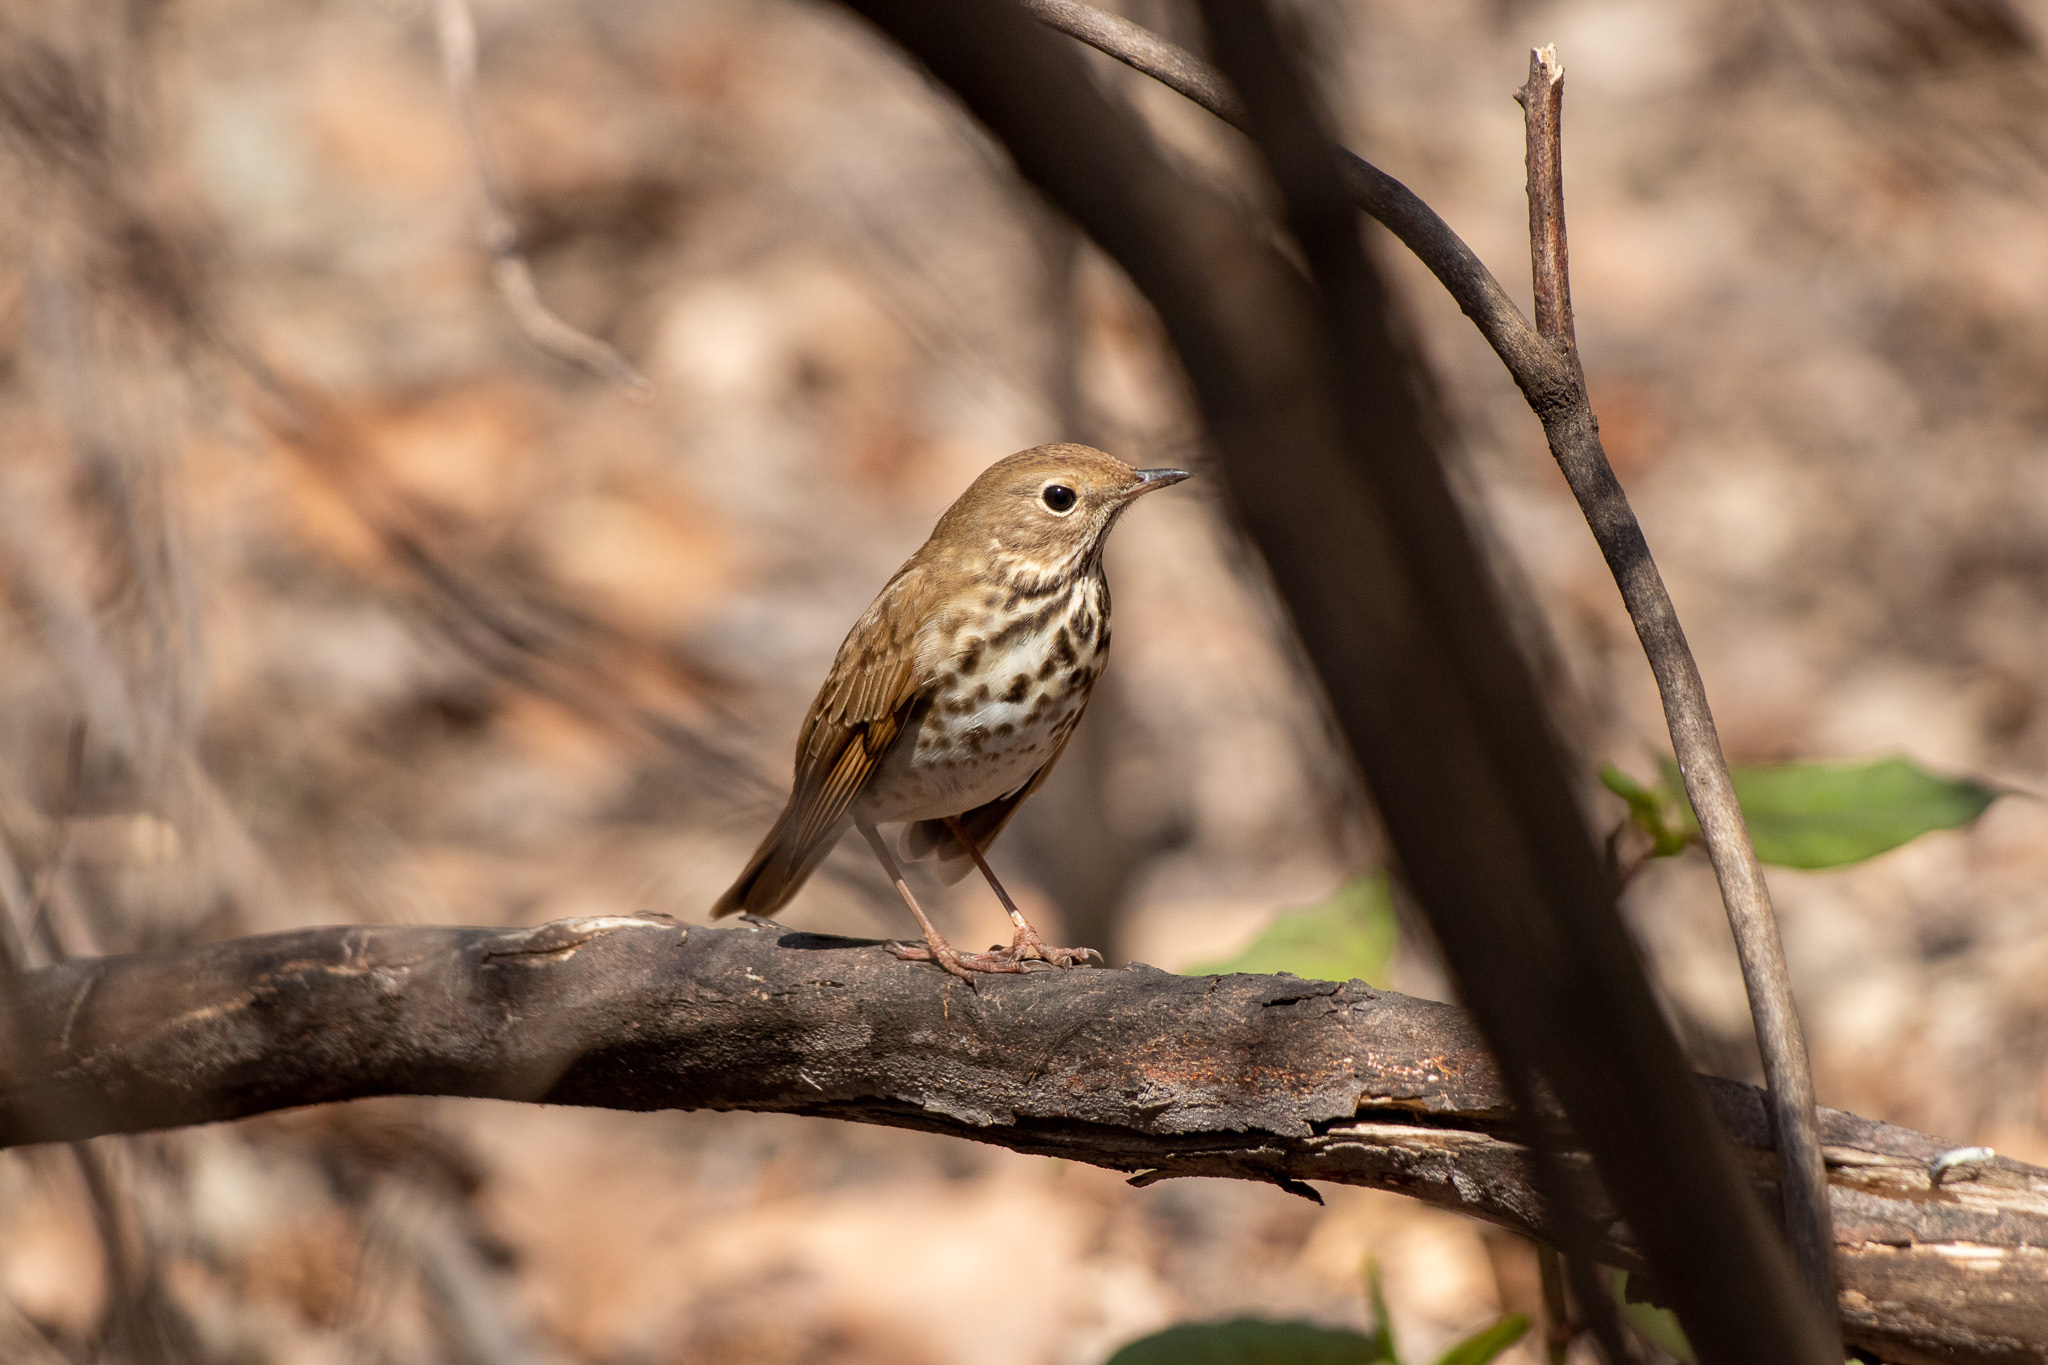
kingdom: Animalia
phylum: Chordata
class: Aves
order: Passeriformes
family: Turdidae
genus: Catharus
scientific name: Catharus guttatus
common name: Hermit thrush
